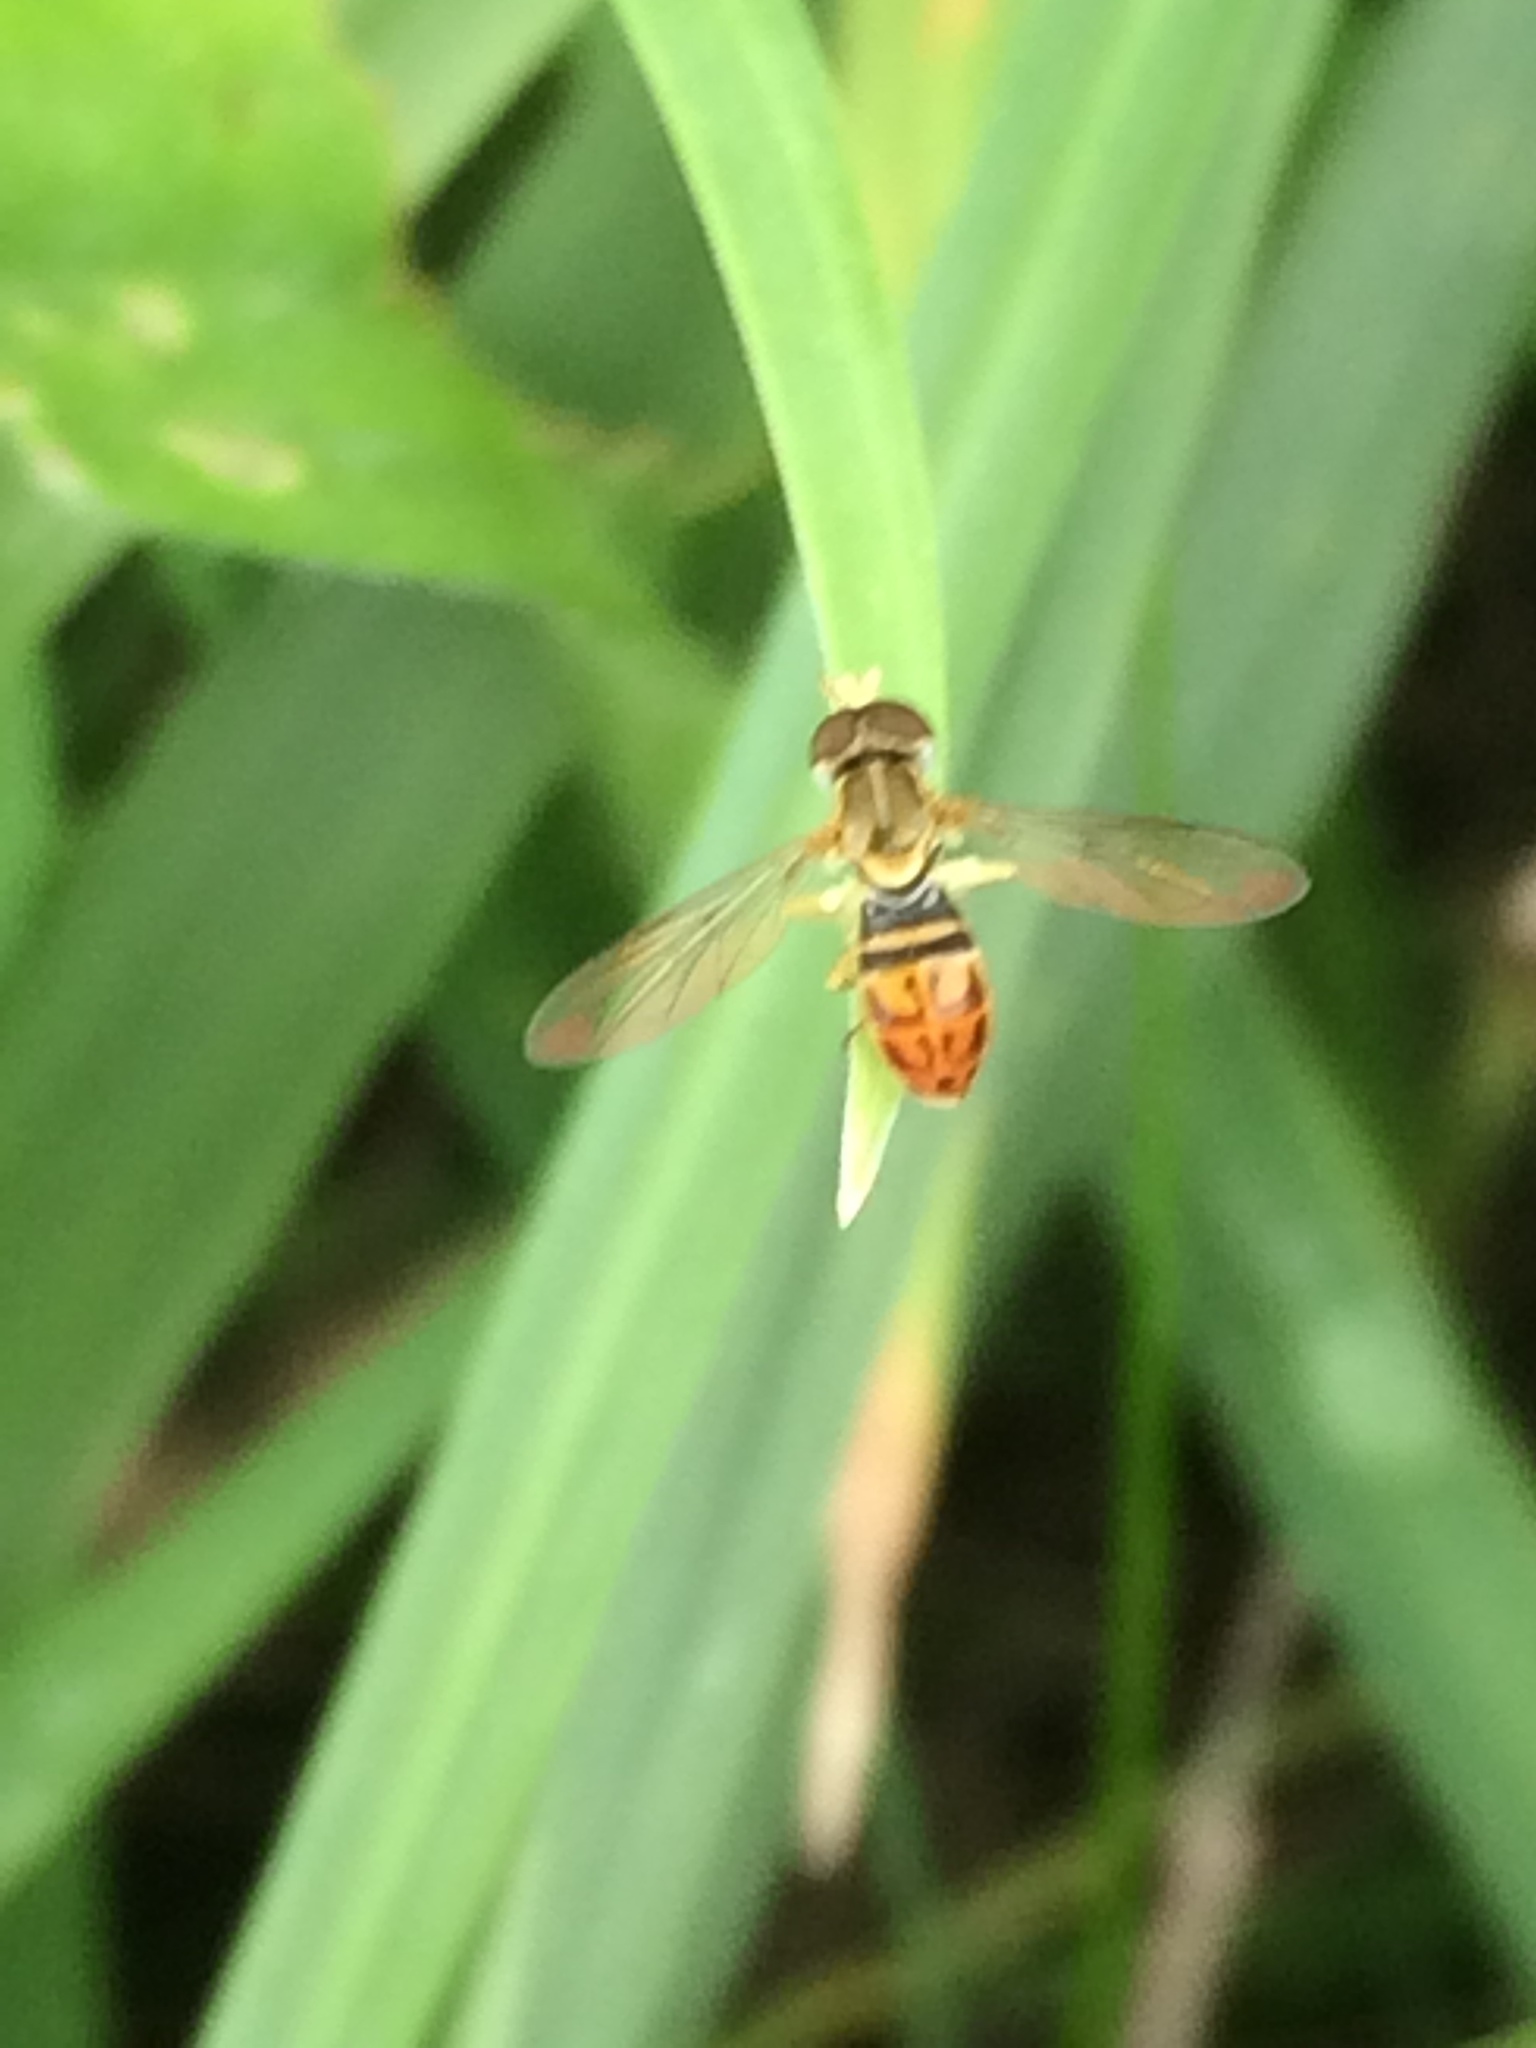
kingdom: Animalia
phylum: Arthropoda
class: Insecta
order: Diptera
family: Syrphidae
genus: Toxomerus
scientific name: Toxomerus marginatus
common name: Syrphid fly
